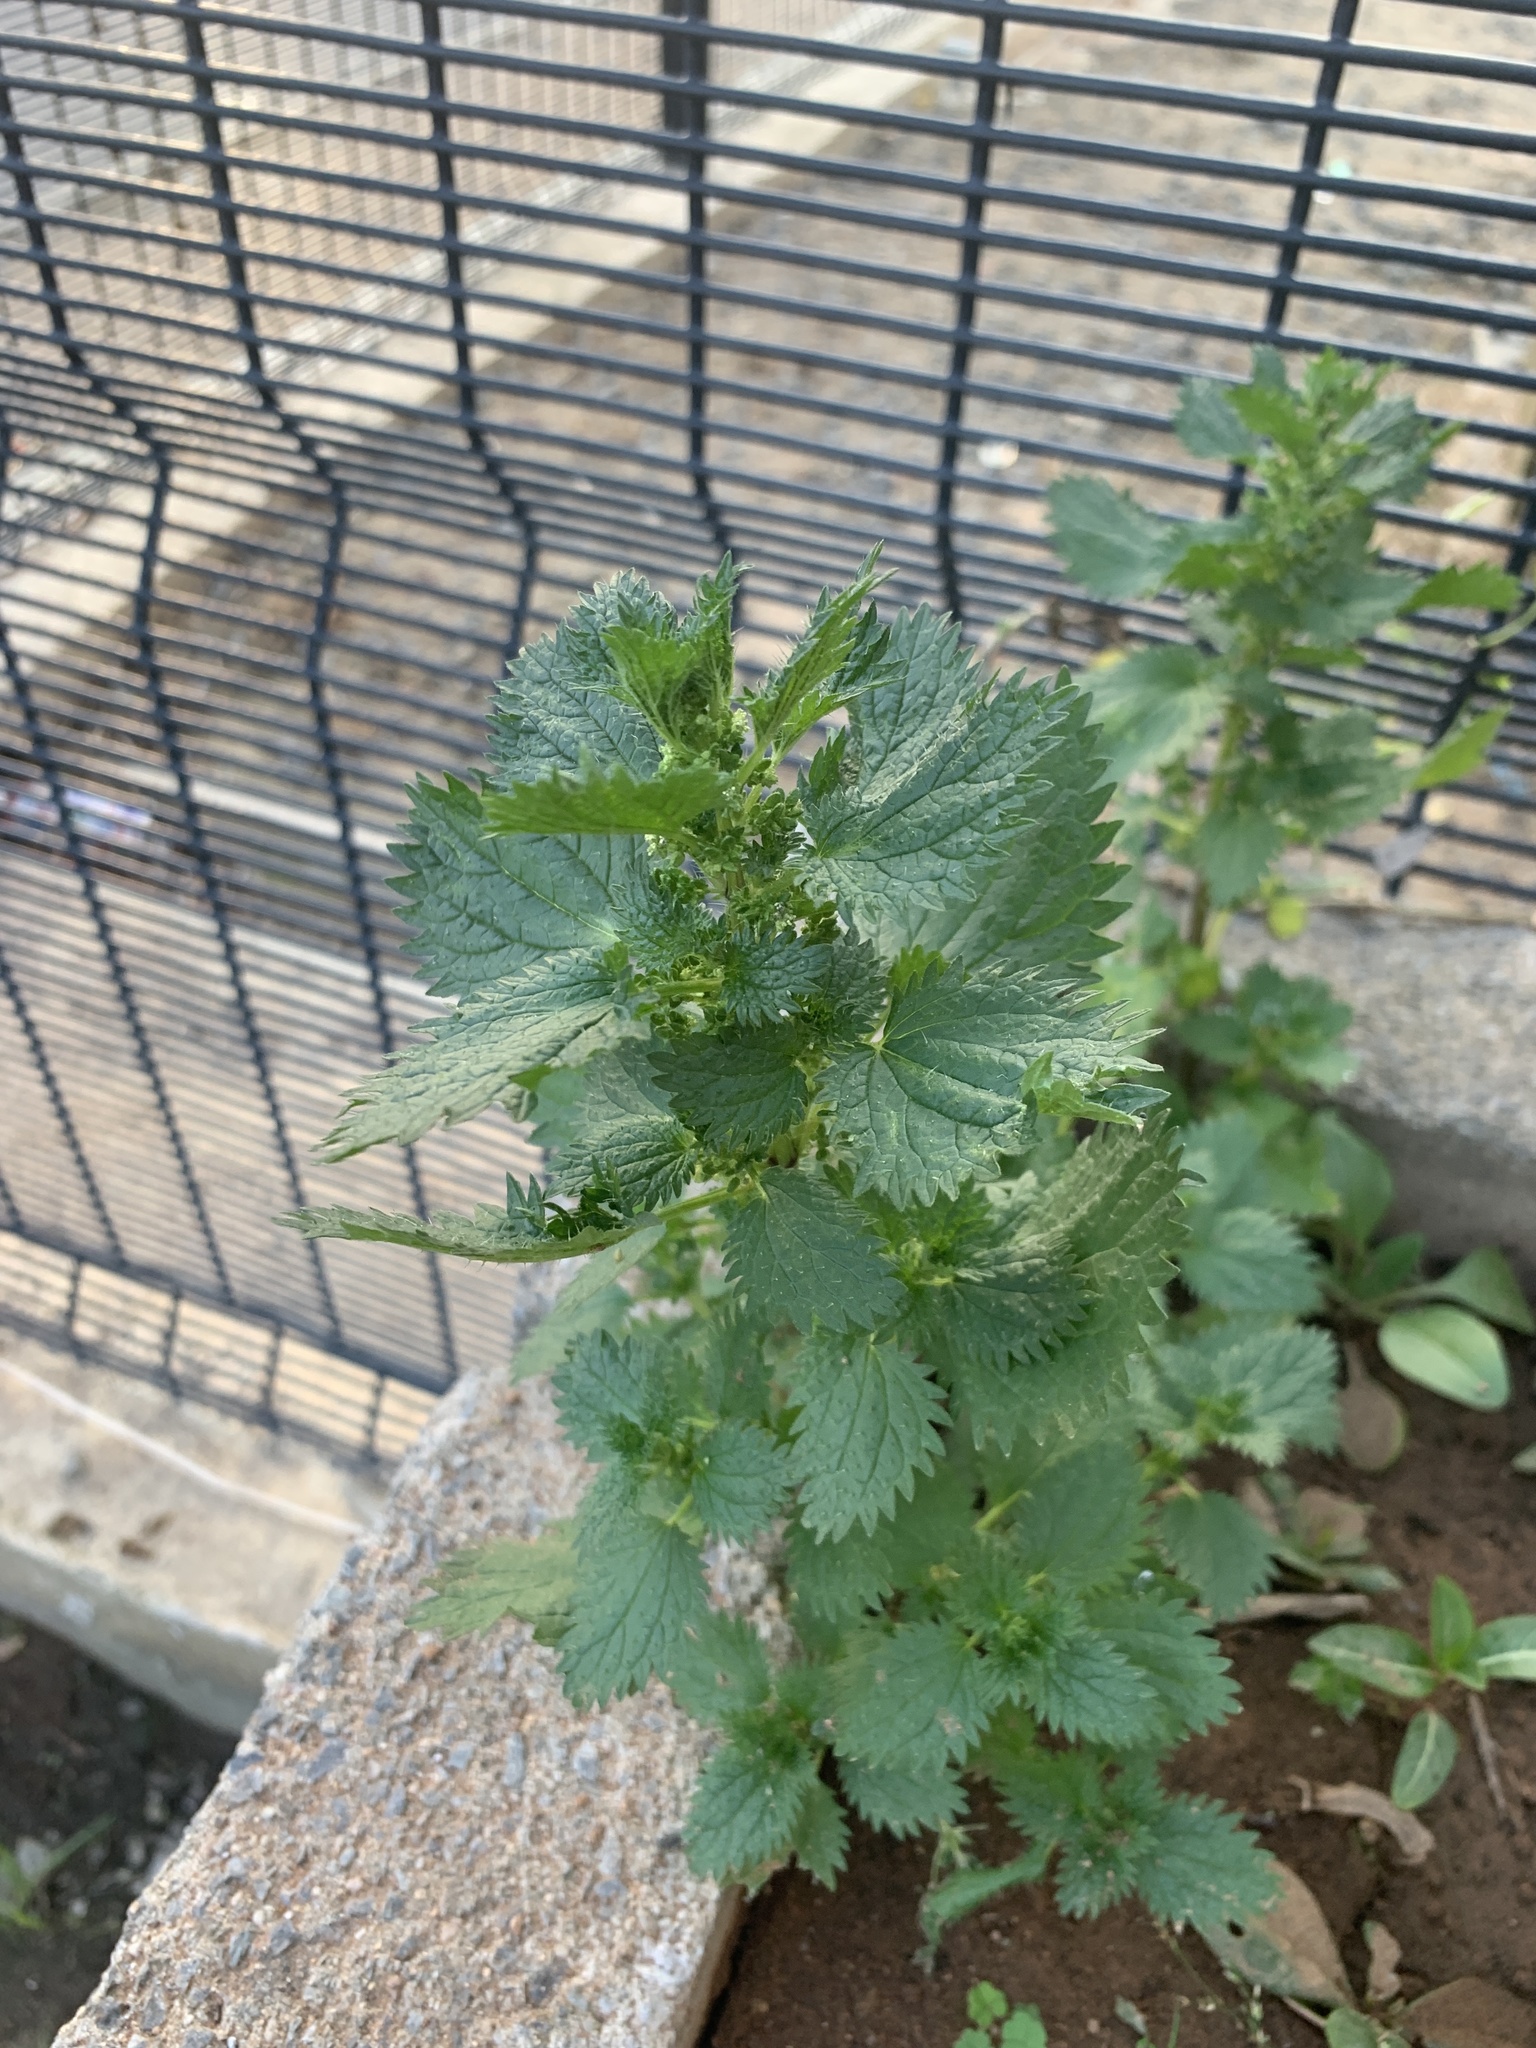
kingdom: Plantae
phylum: Tracheophyta
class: Magnoliopsida
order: Rosales
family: Urticaceae
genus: Urtica
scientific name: Urtica urens
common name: Dwarf nettle
